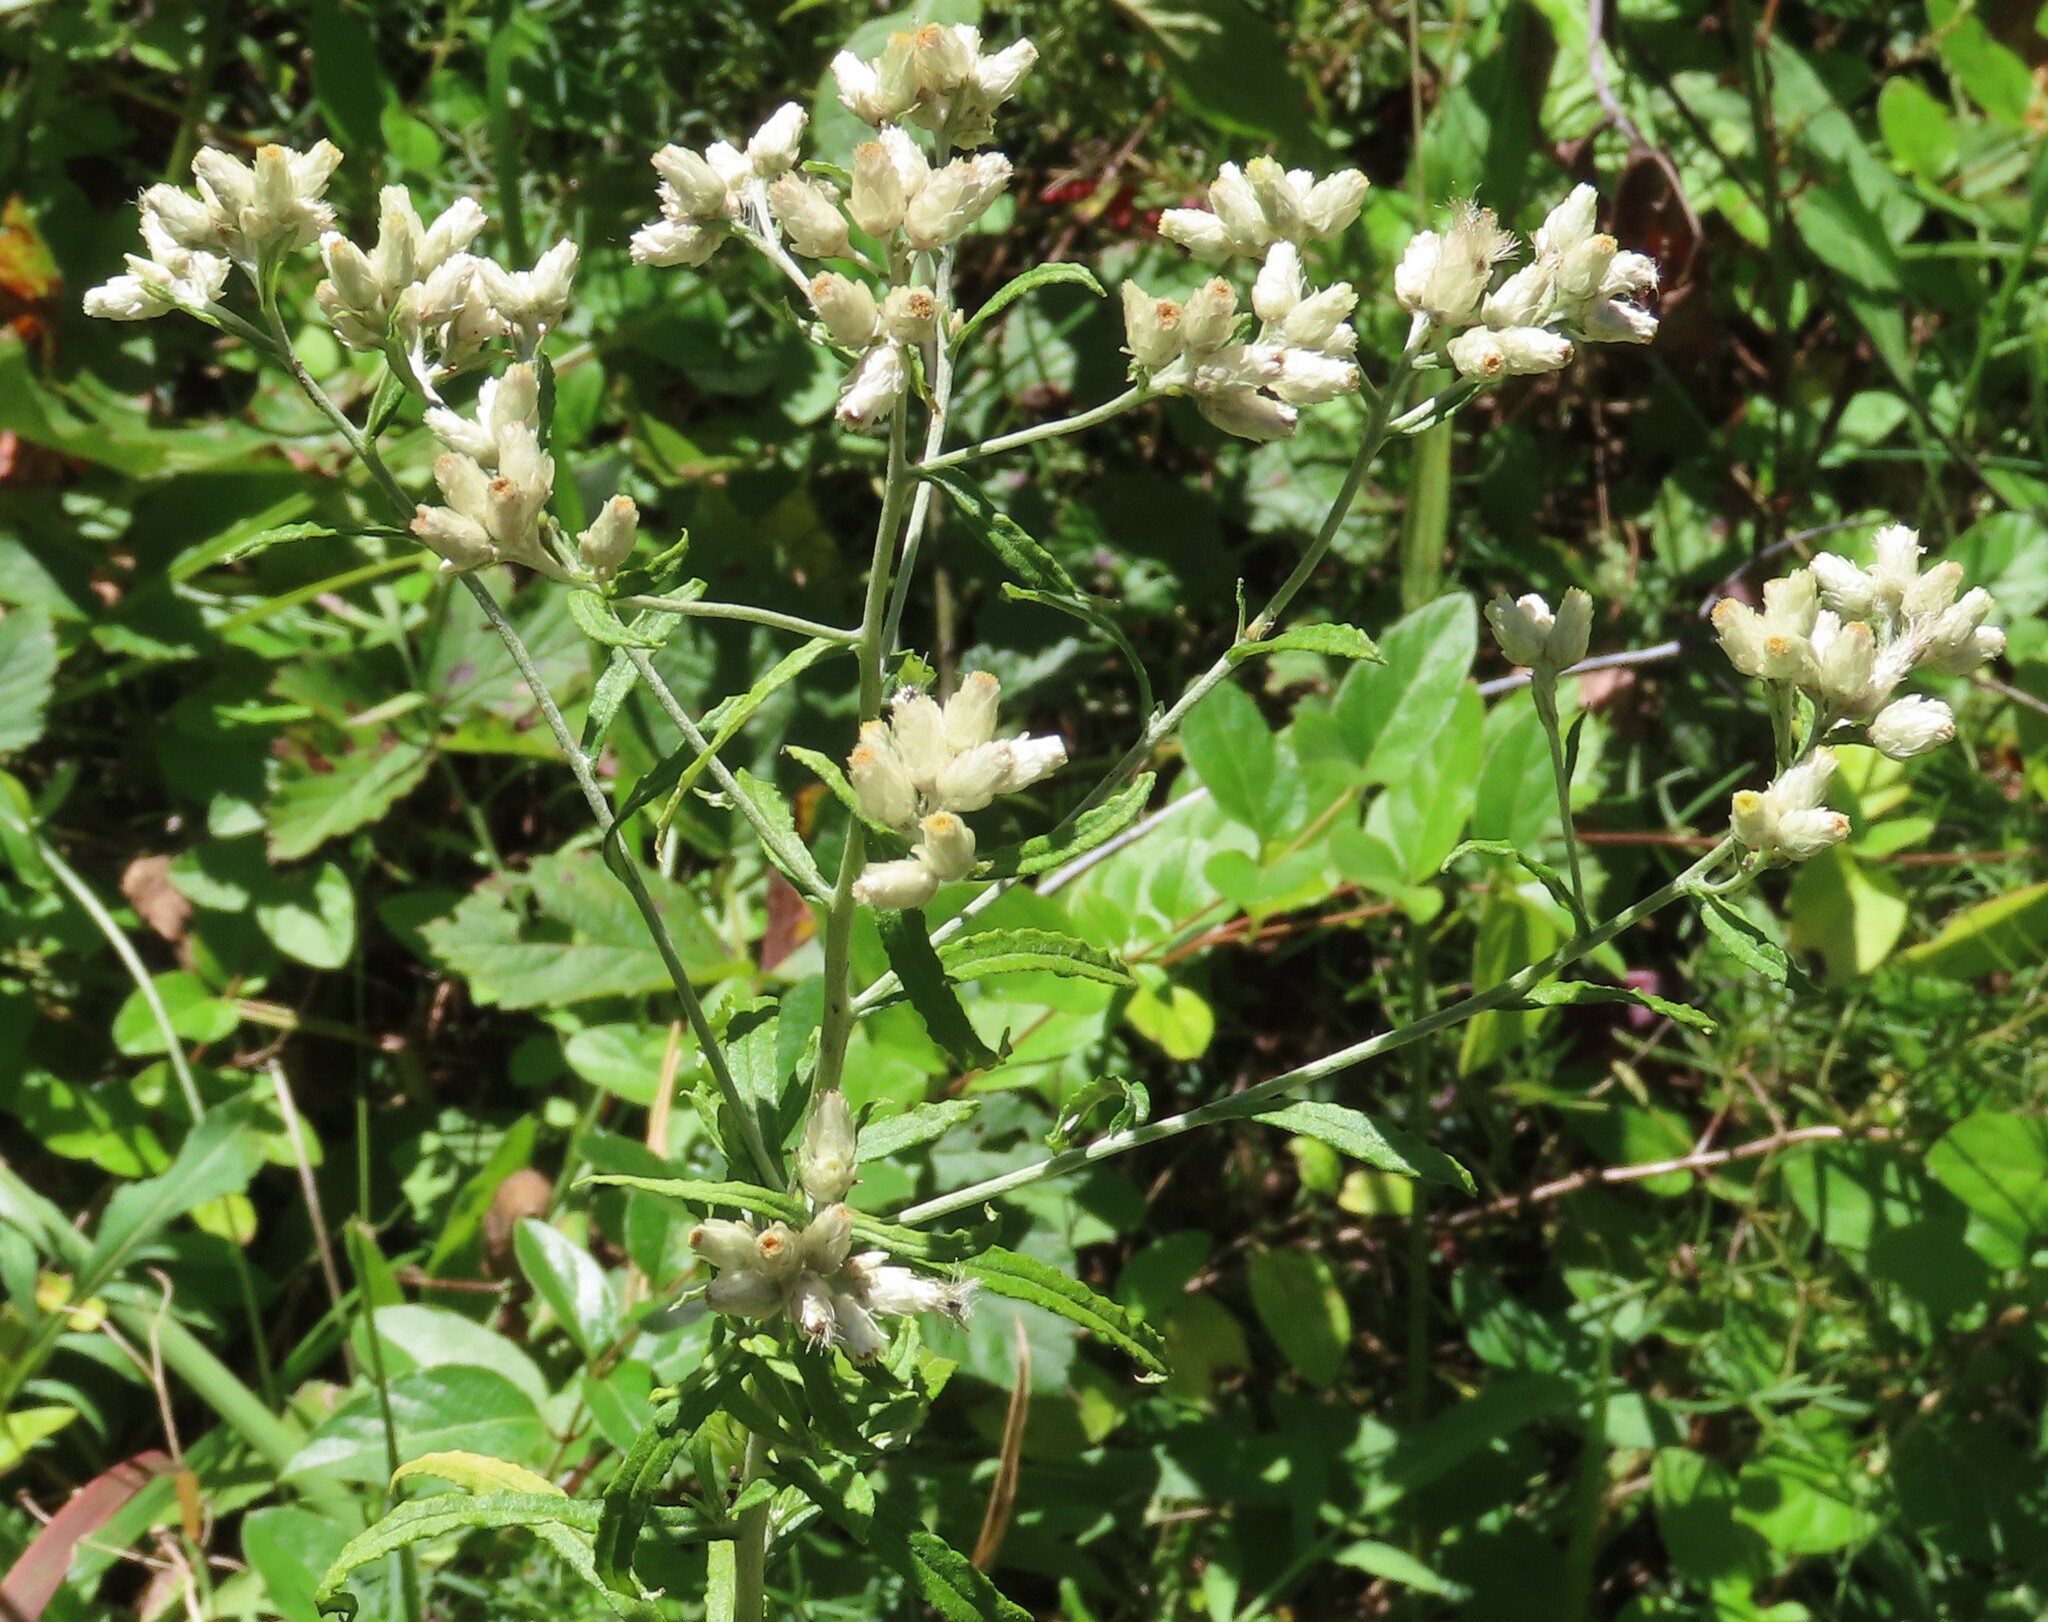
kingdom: Plantae
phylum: Tracheophyta
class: Magnoliopsida
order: Asterales
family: Asteraceae
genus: Pseudognaphalium
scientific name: Pseudognaphalium obtusifolium
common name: Eastern rabbit-tobacco
